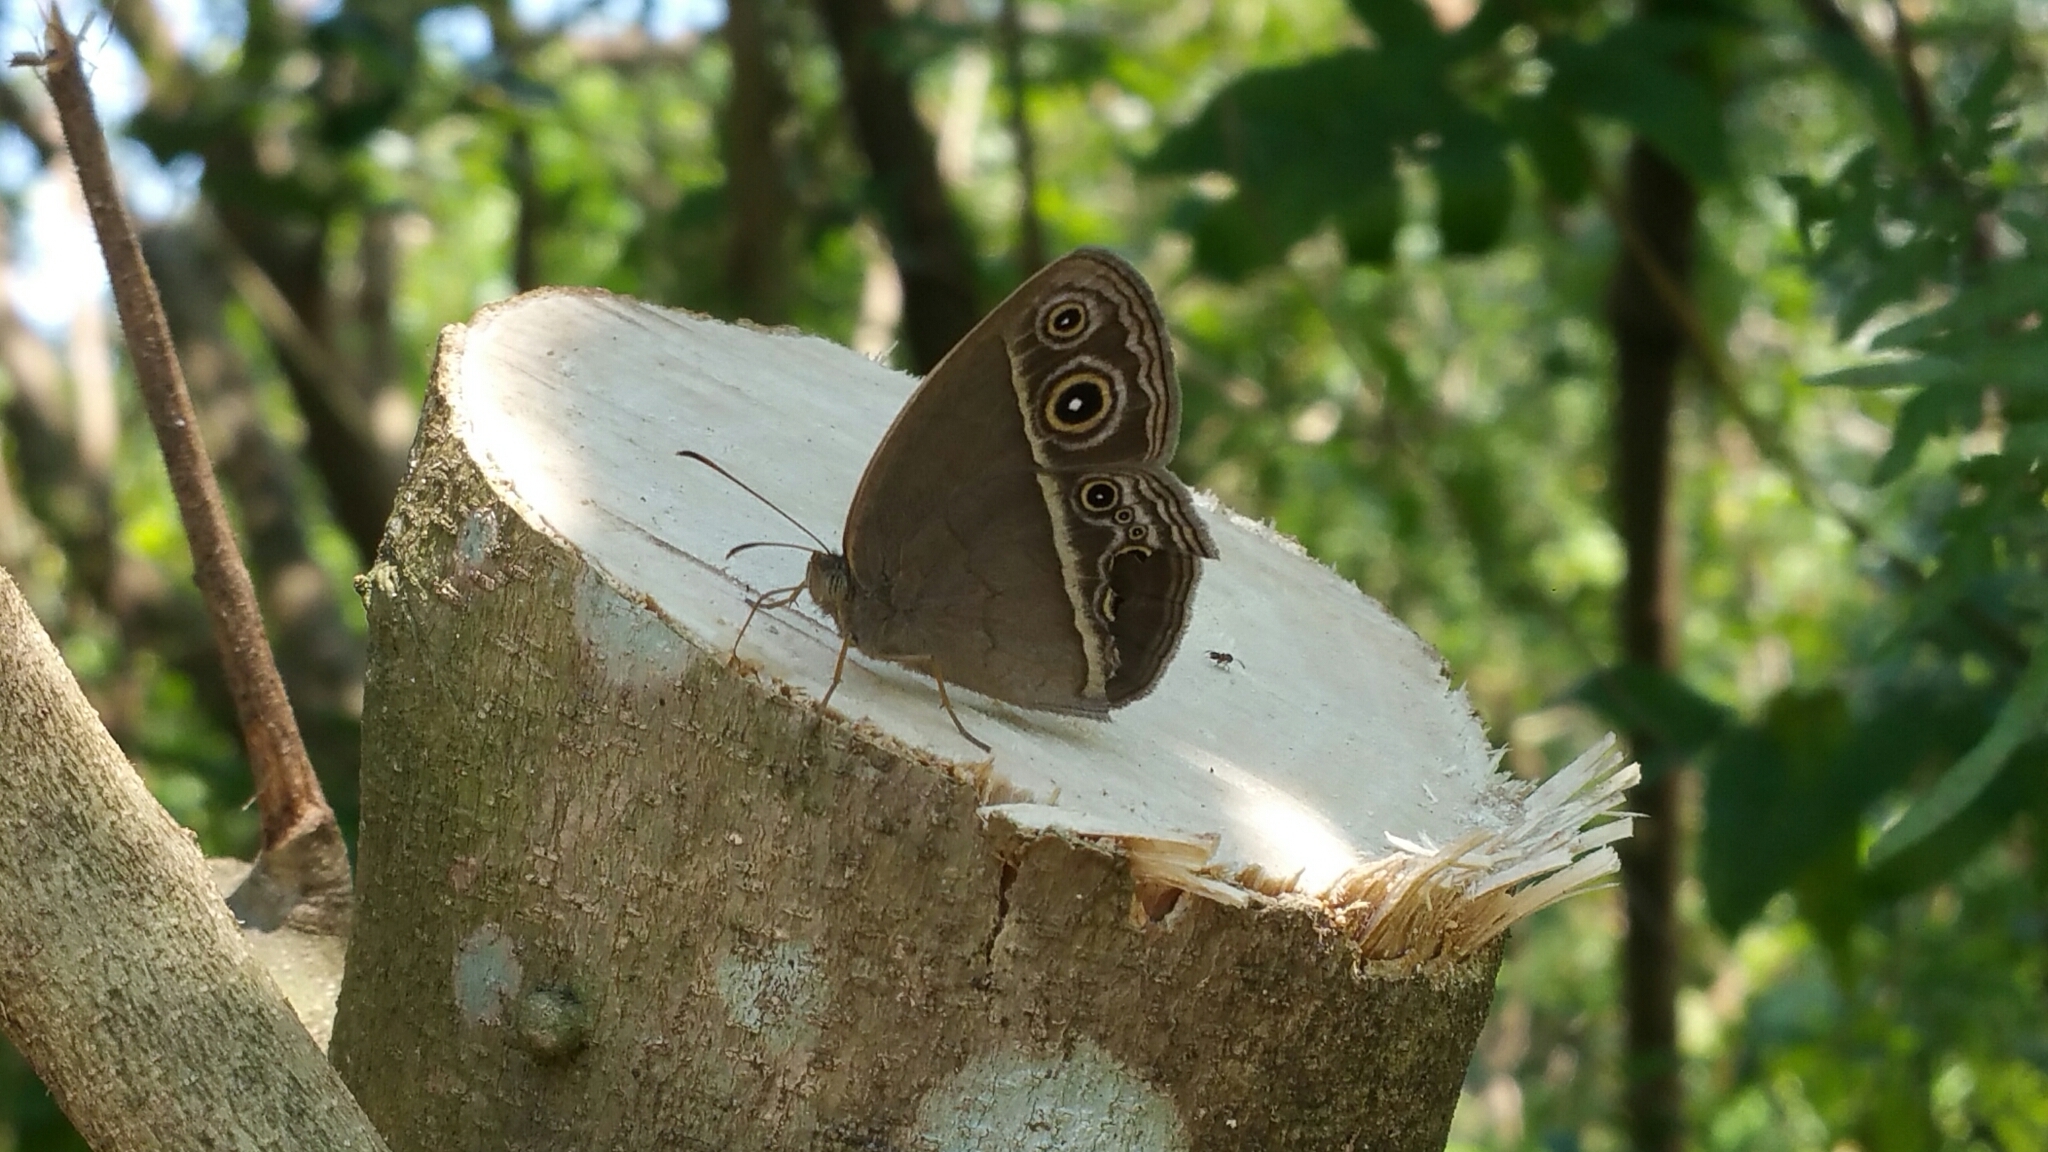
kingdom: Animalia
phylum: Arthropoda
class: Insecta
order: Lepidoptera
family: Nymphalidae
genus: Mycalesis
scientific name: Mycalesis mineus
